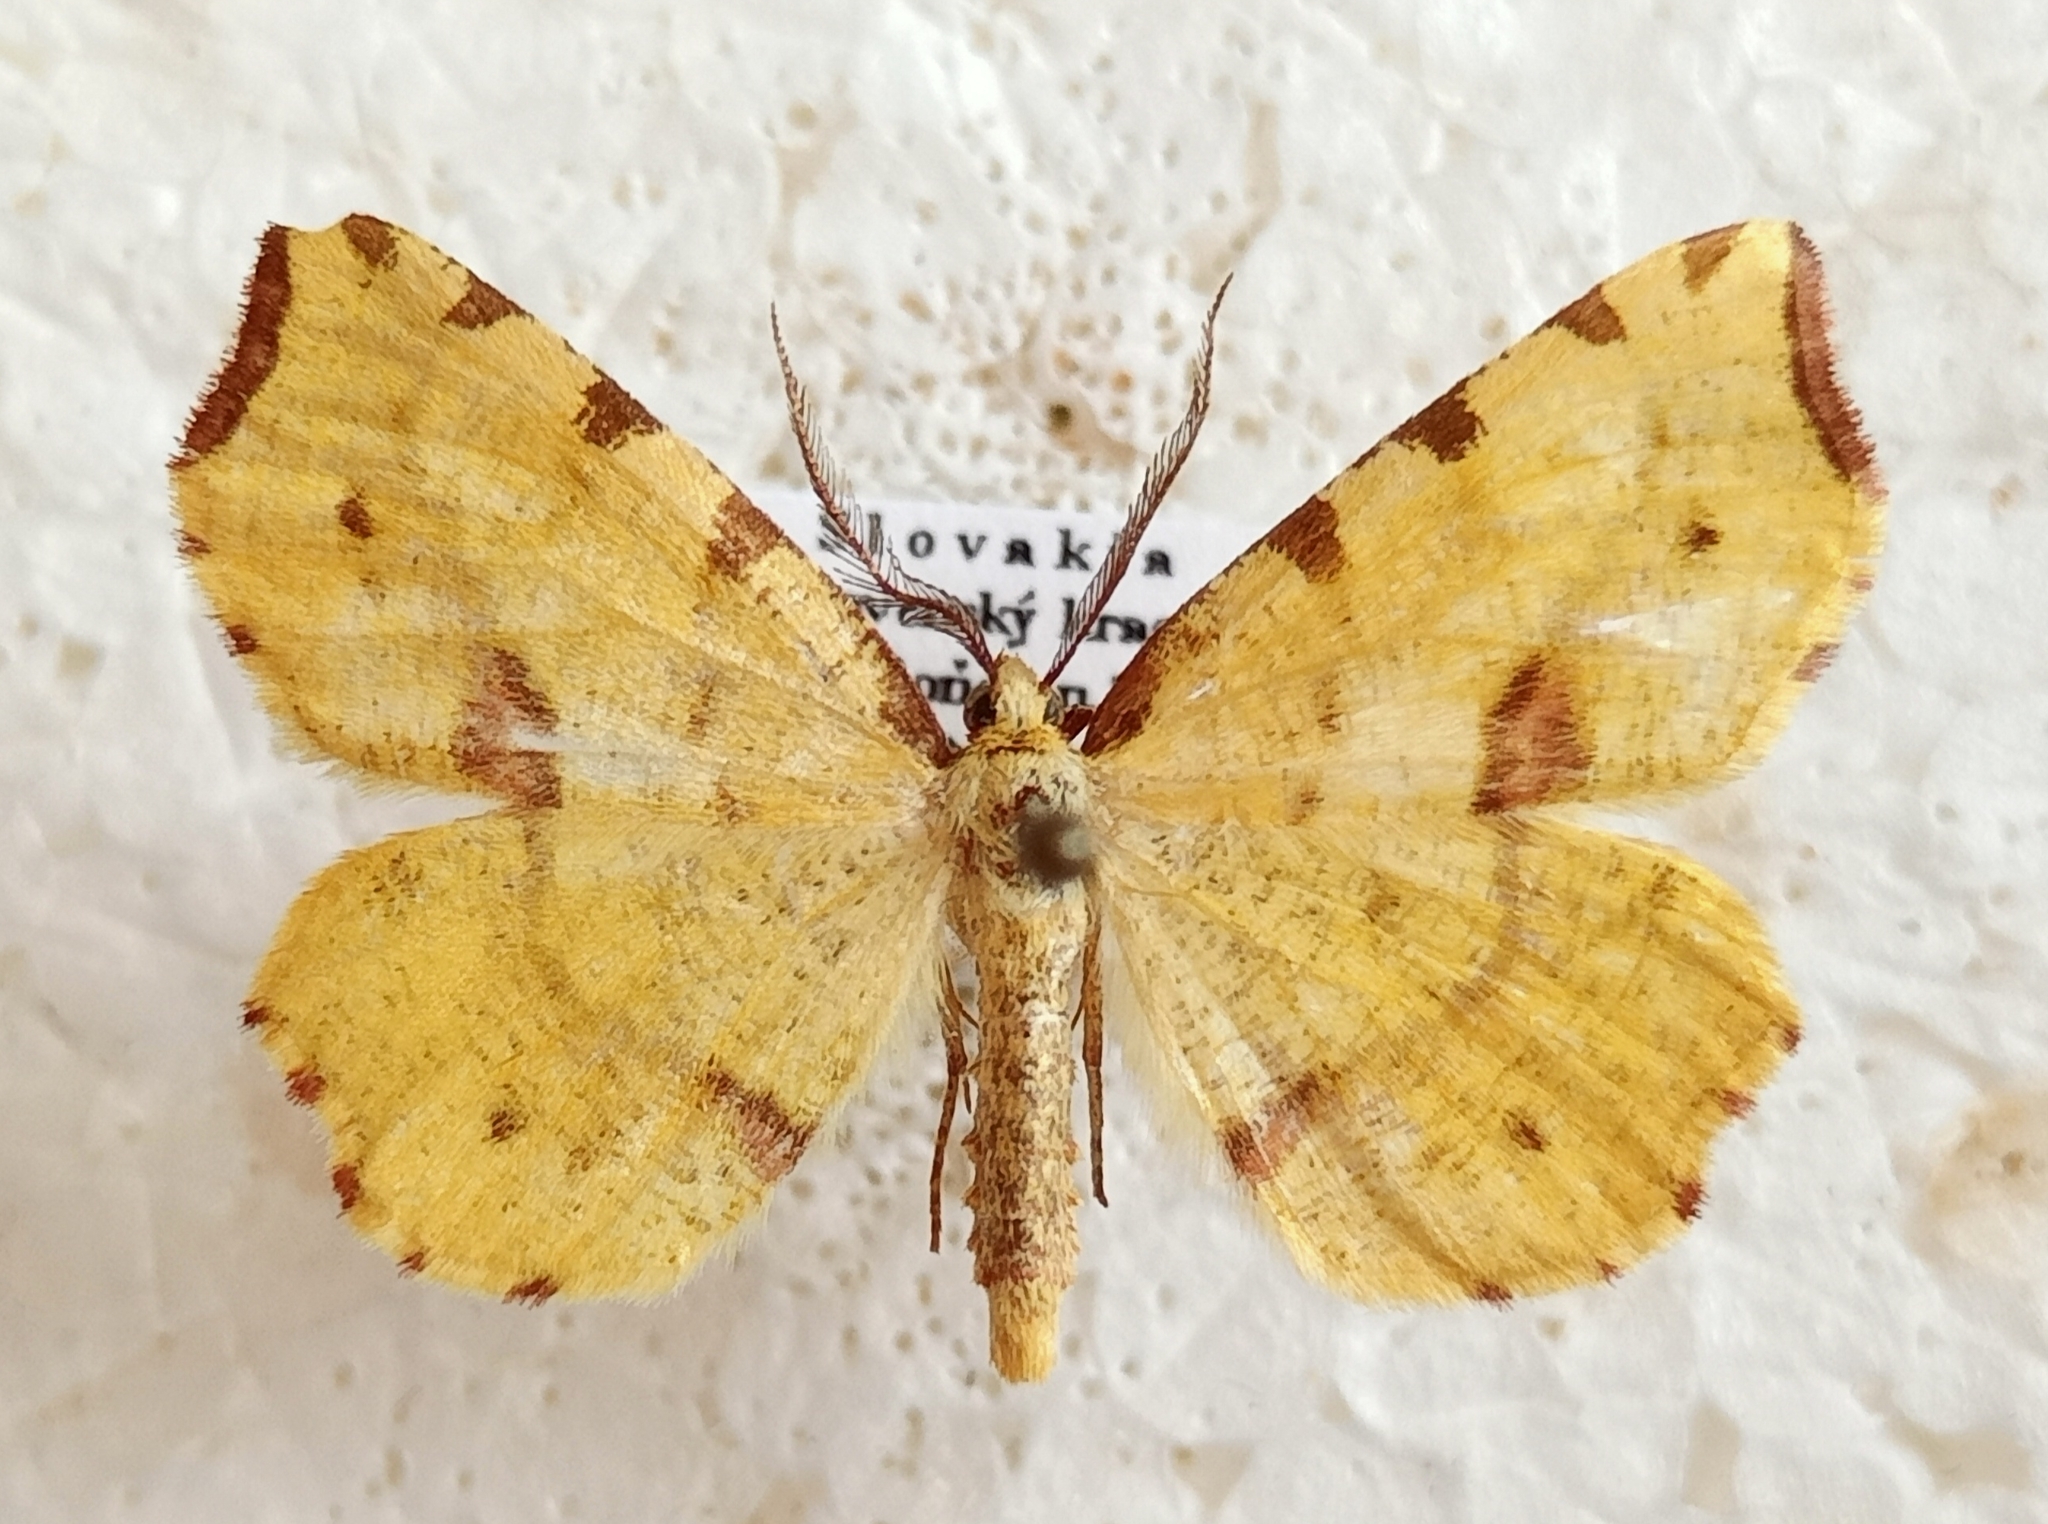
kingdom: Animalia
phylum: Arthropoda
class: Insecta
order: Lepidoptera
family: Geometridae
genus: Therapis
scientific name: Therapis flavicaria
